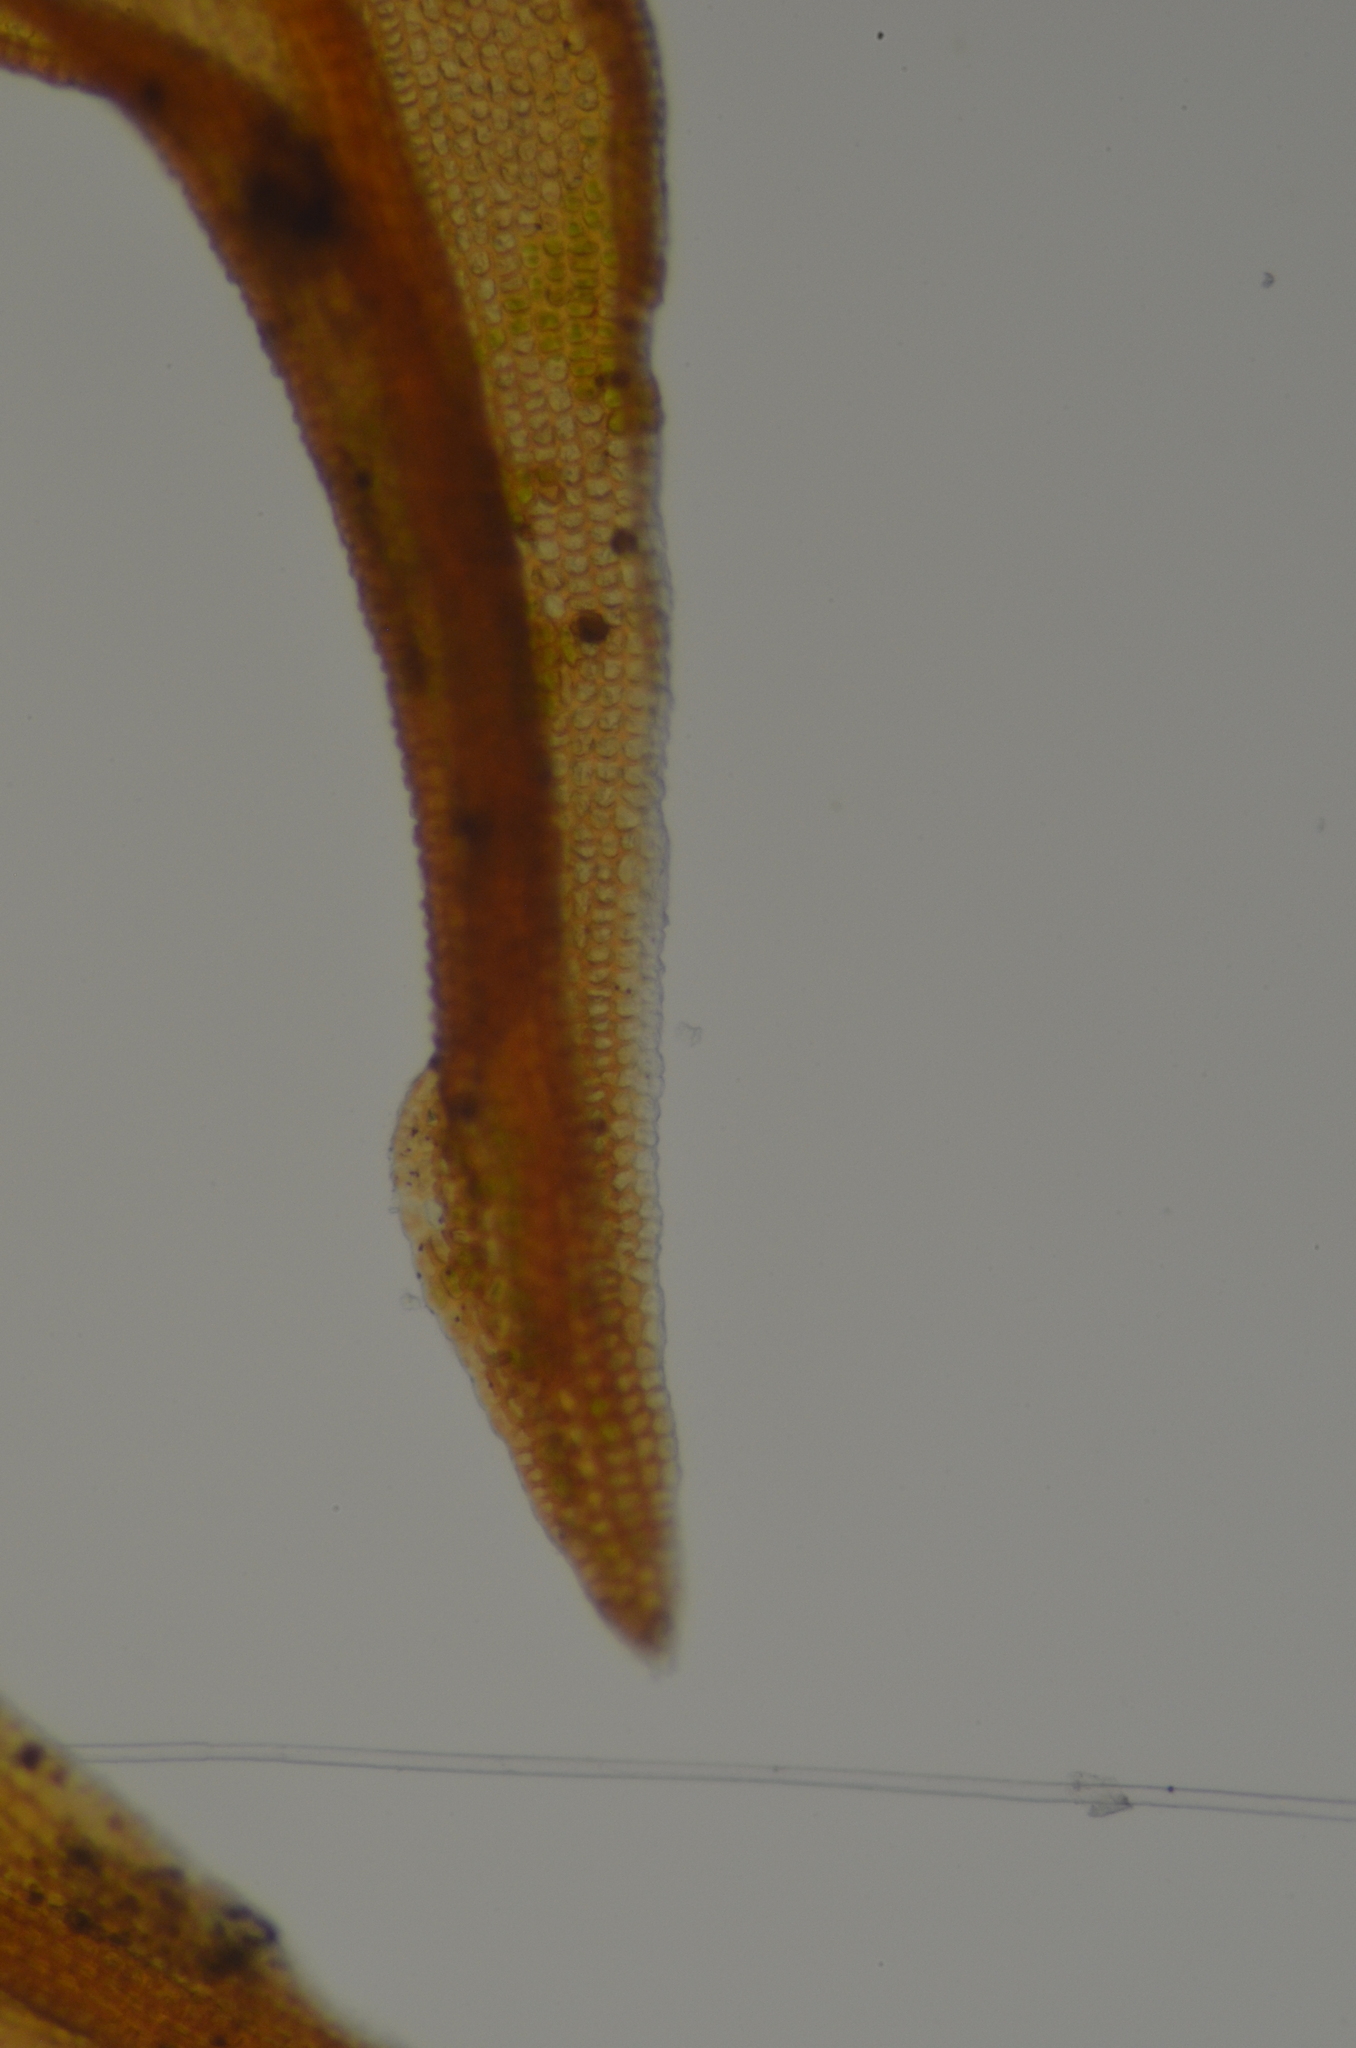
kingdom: Plantae
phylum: Bryophyta
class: Bryopsida
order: Pottiales
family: Pottiaceae
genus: Didymodon
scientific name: Didymodon rigidulus
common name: Rigid beard-moss
